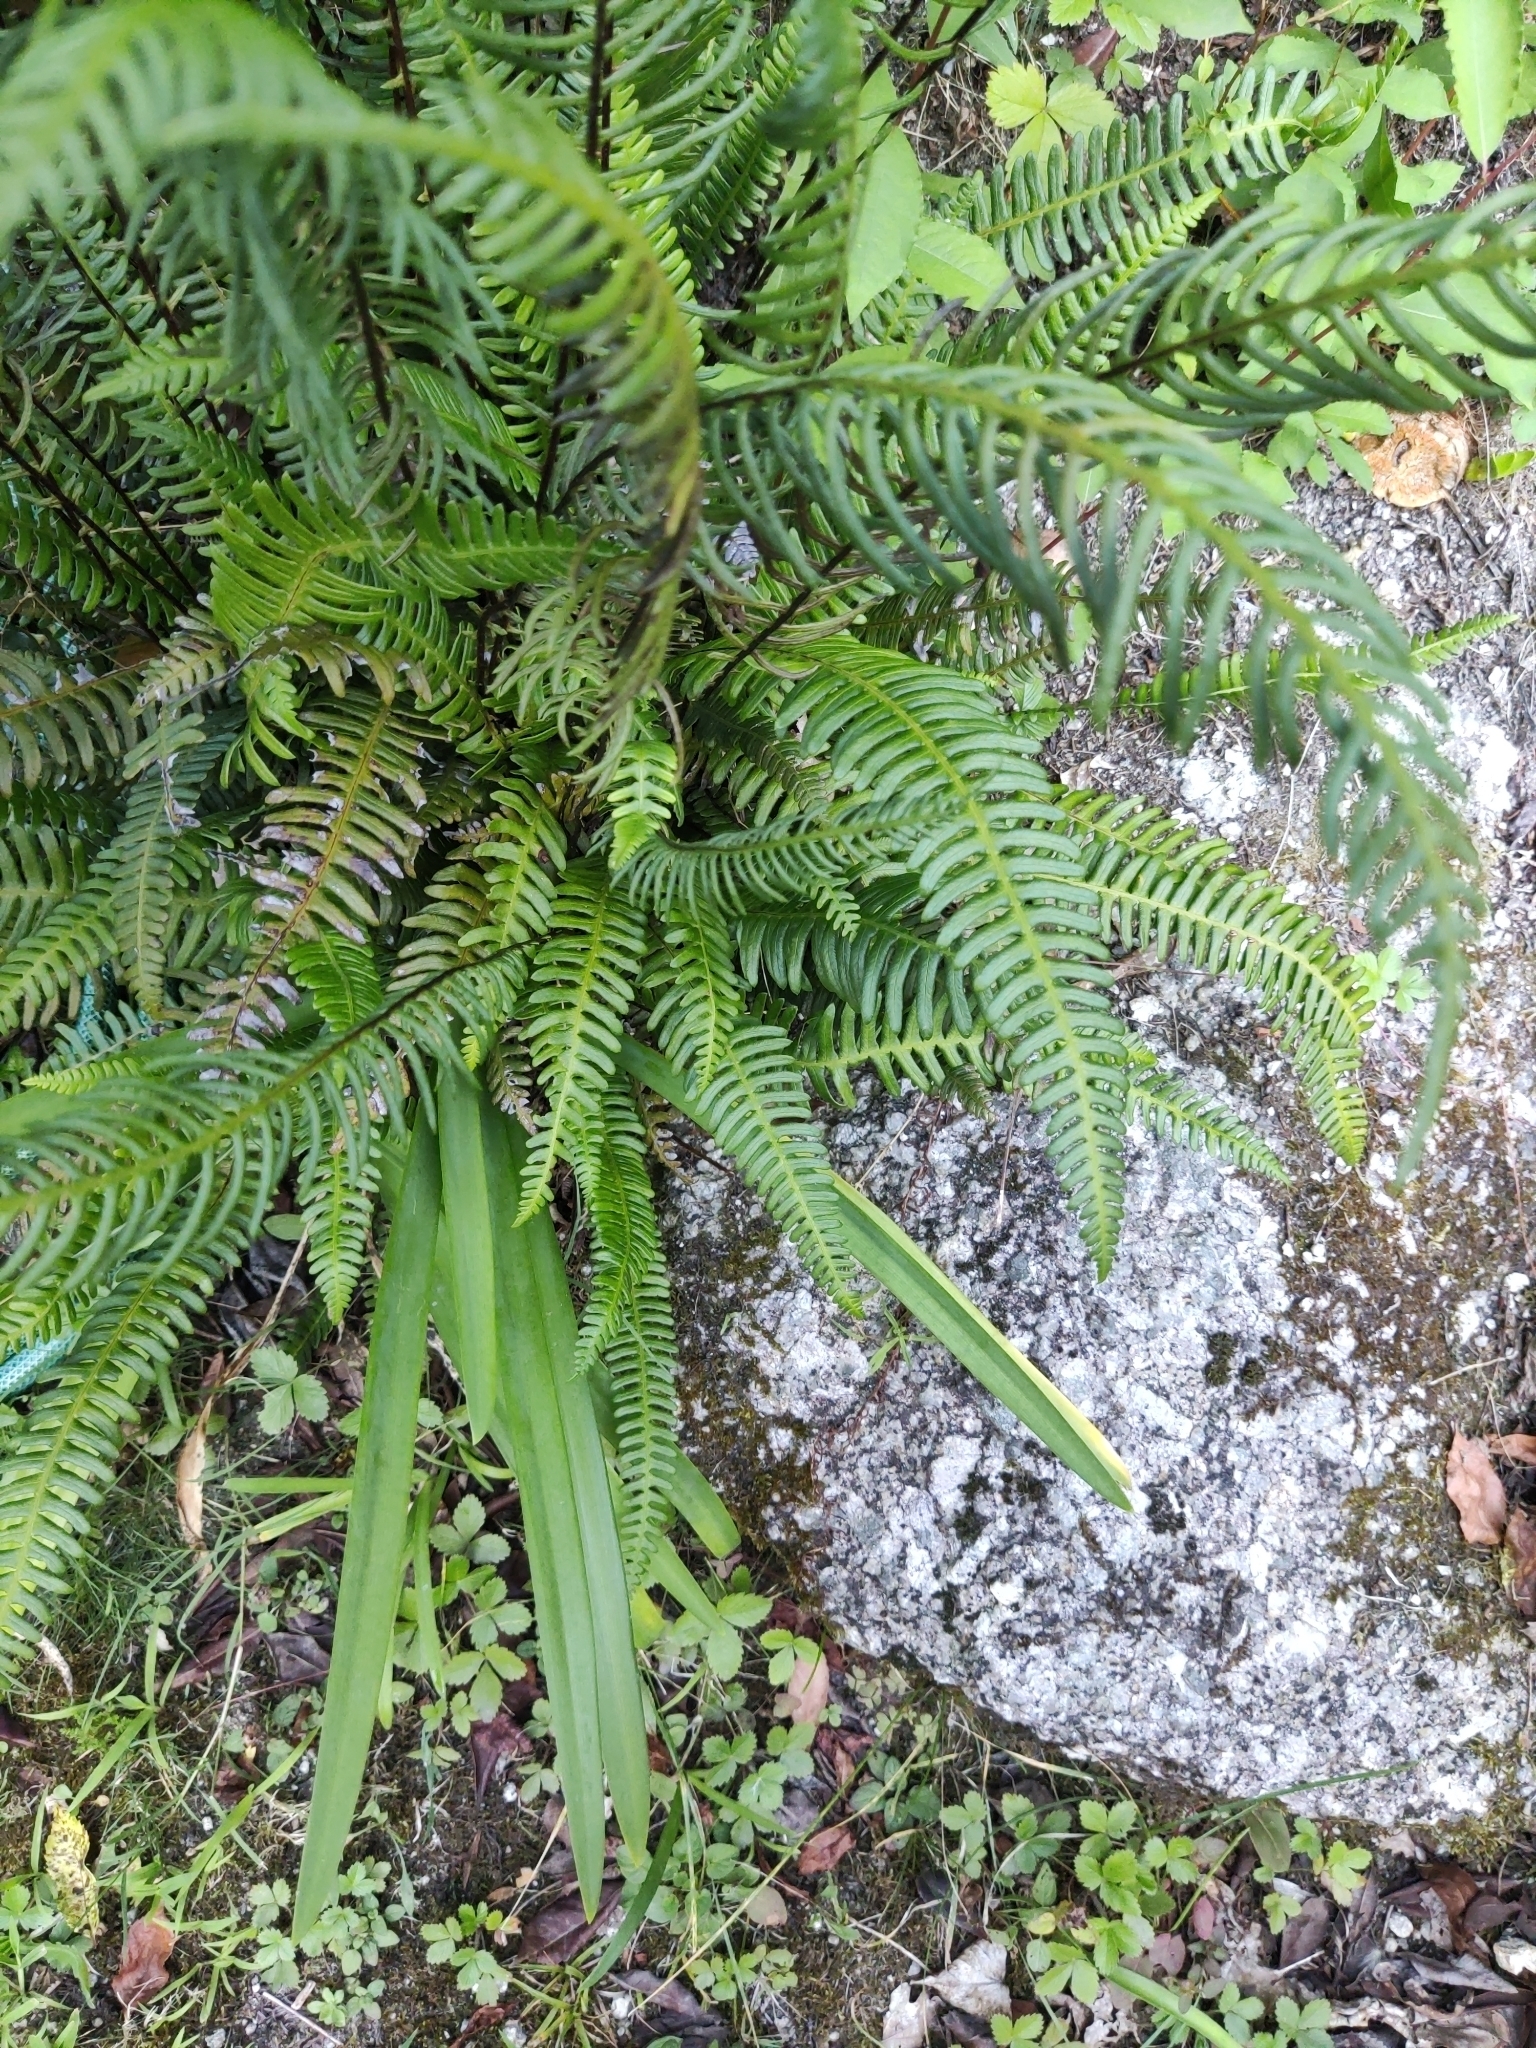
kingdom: Plantae
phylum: Tracheophyta
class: Polypodiopsida
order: Polypodiales
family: Blechnaceae
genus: Struthiopteris
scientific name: Struthiopteris spicant
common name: Deer fern
